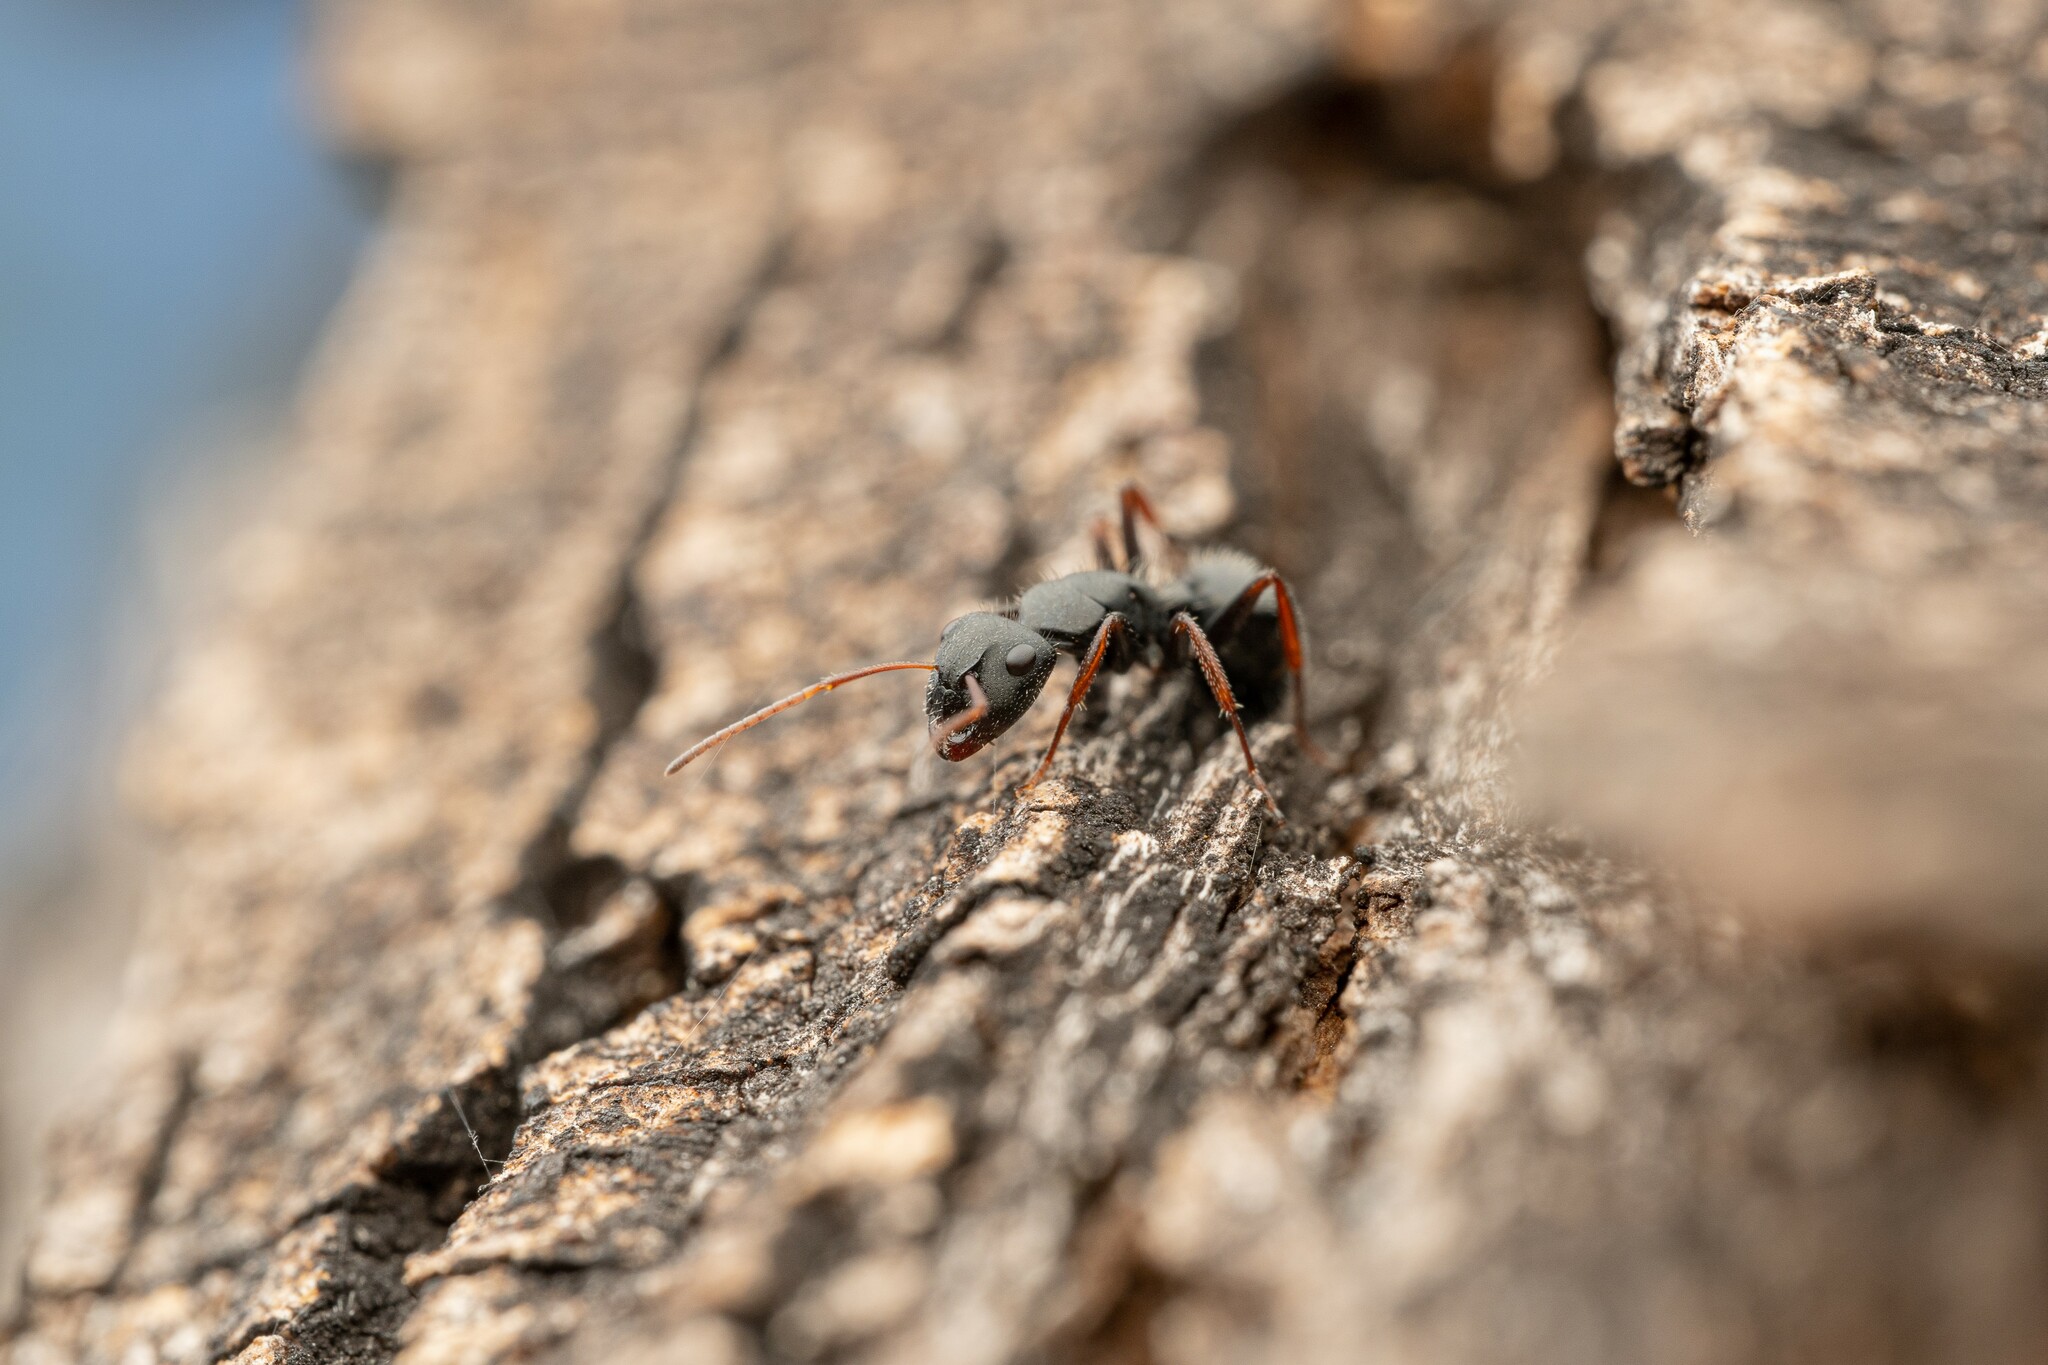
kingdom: Animalia
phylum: Arthropoda
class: Insecta
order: Hymenoptera
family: Formicidae
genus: Camponotus
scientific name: Camponotus mina
